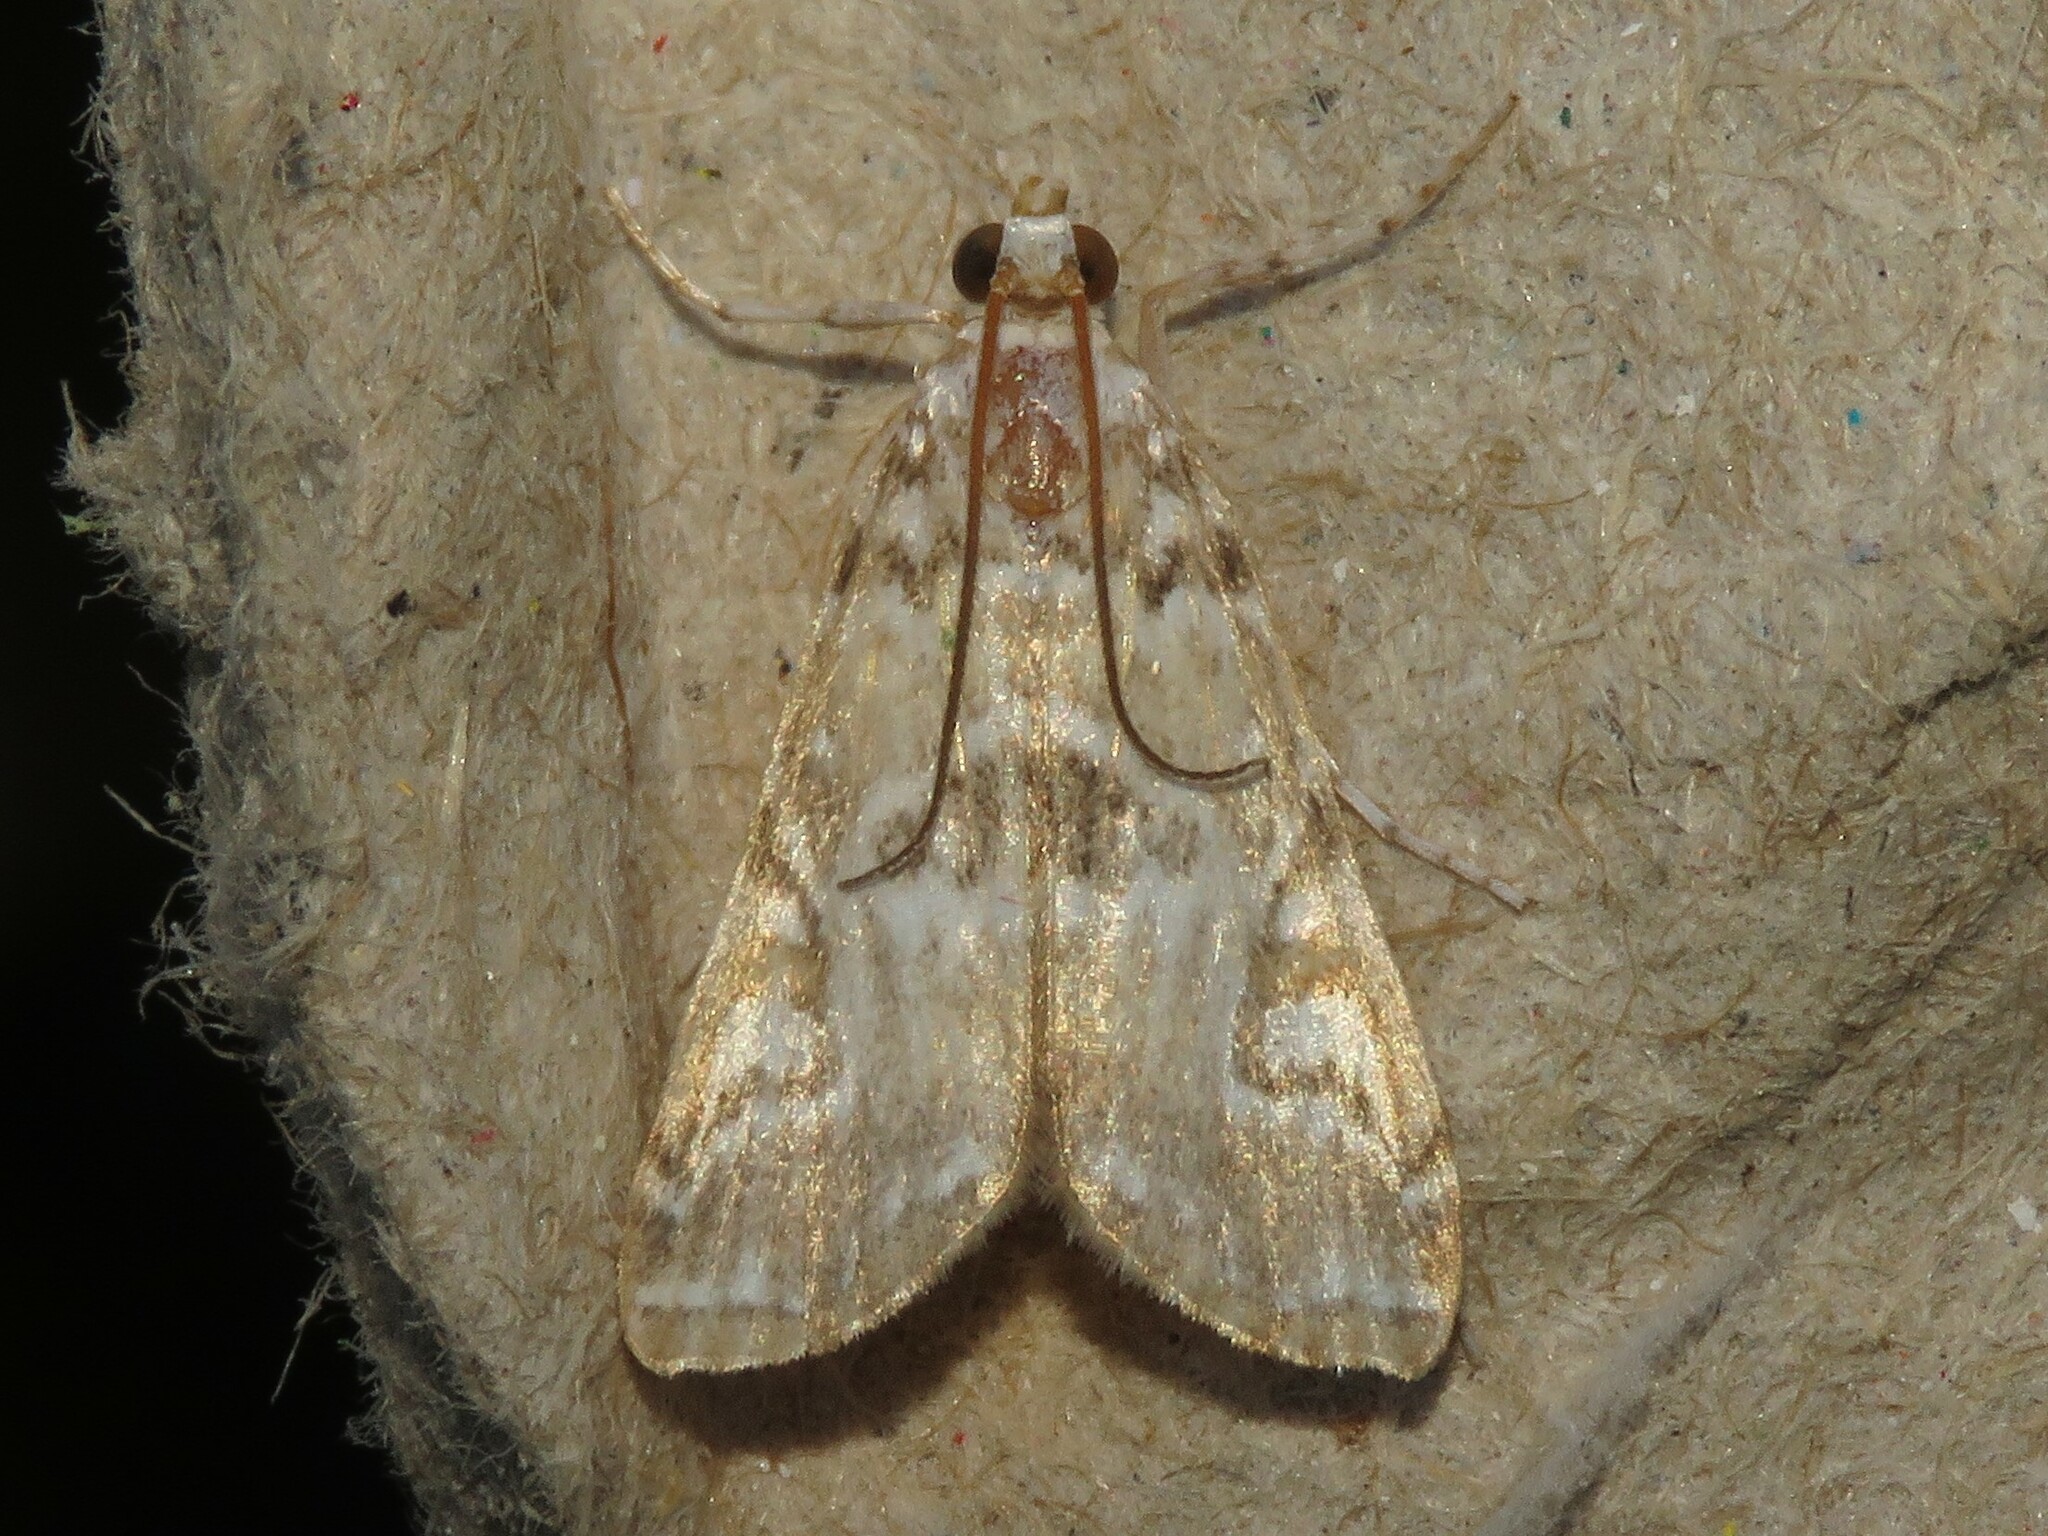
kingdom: Animalia
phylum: Arthropoda
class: Insecta
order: Lepidoptera
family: Crambidae
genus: Elophila
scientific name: Elophila gyralis
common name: Waterlily borer moth
